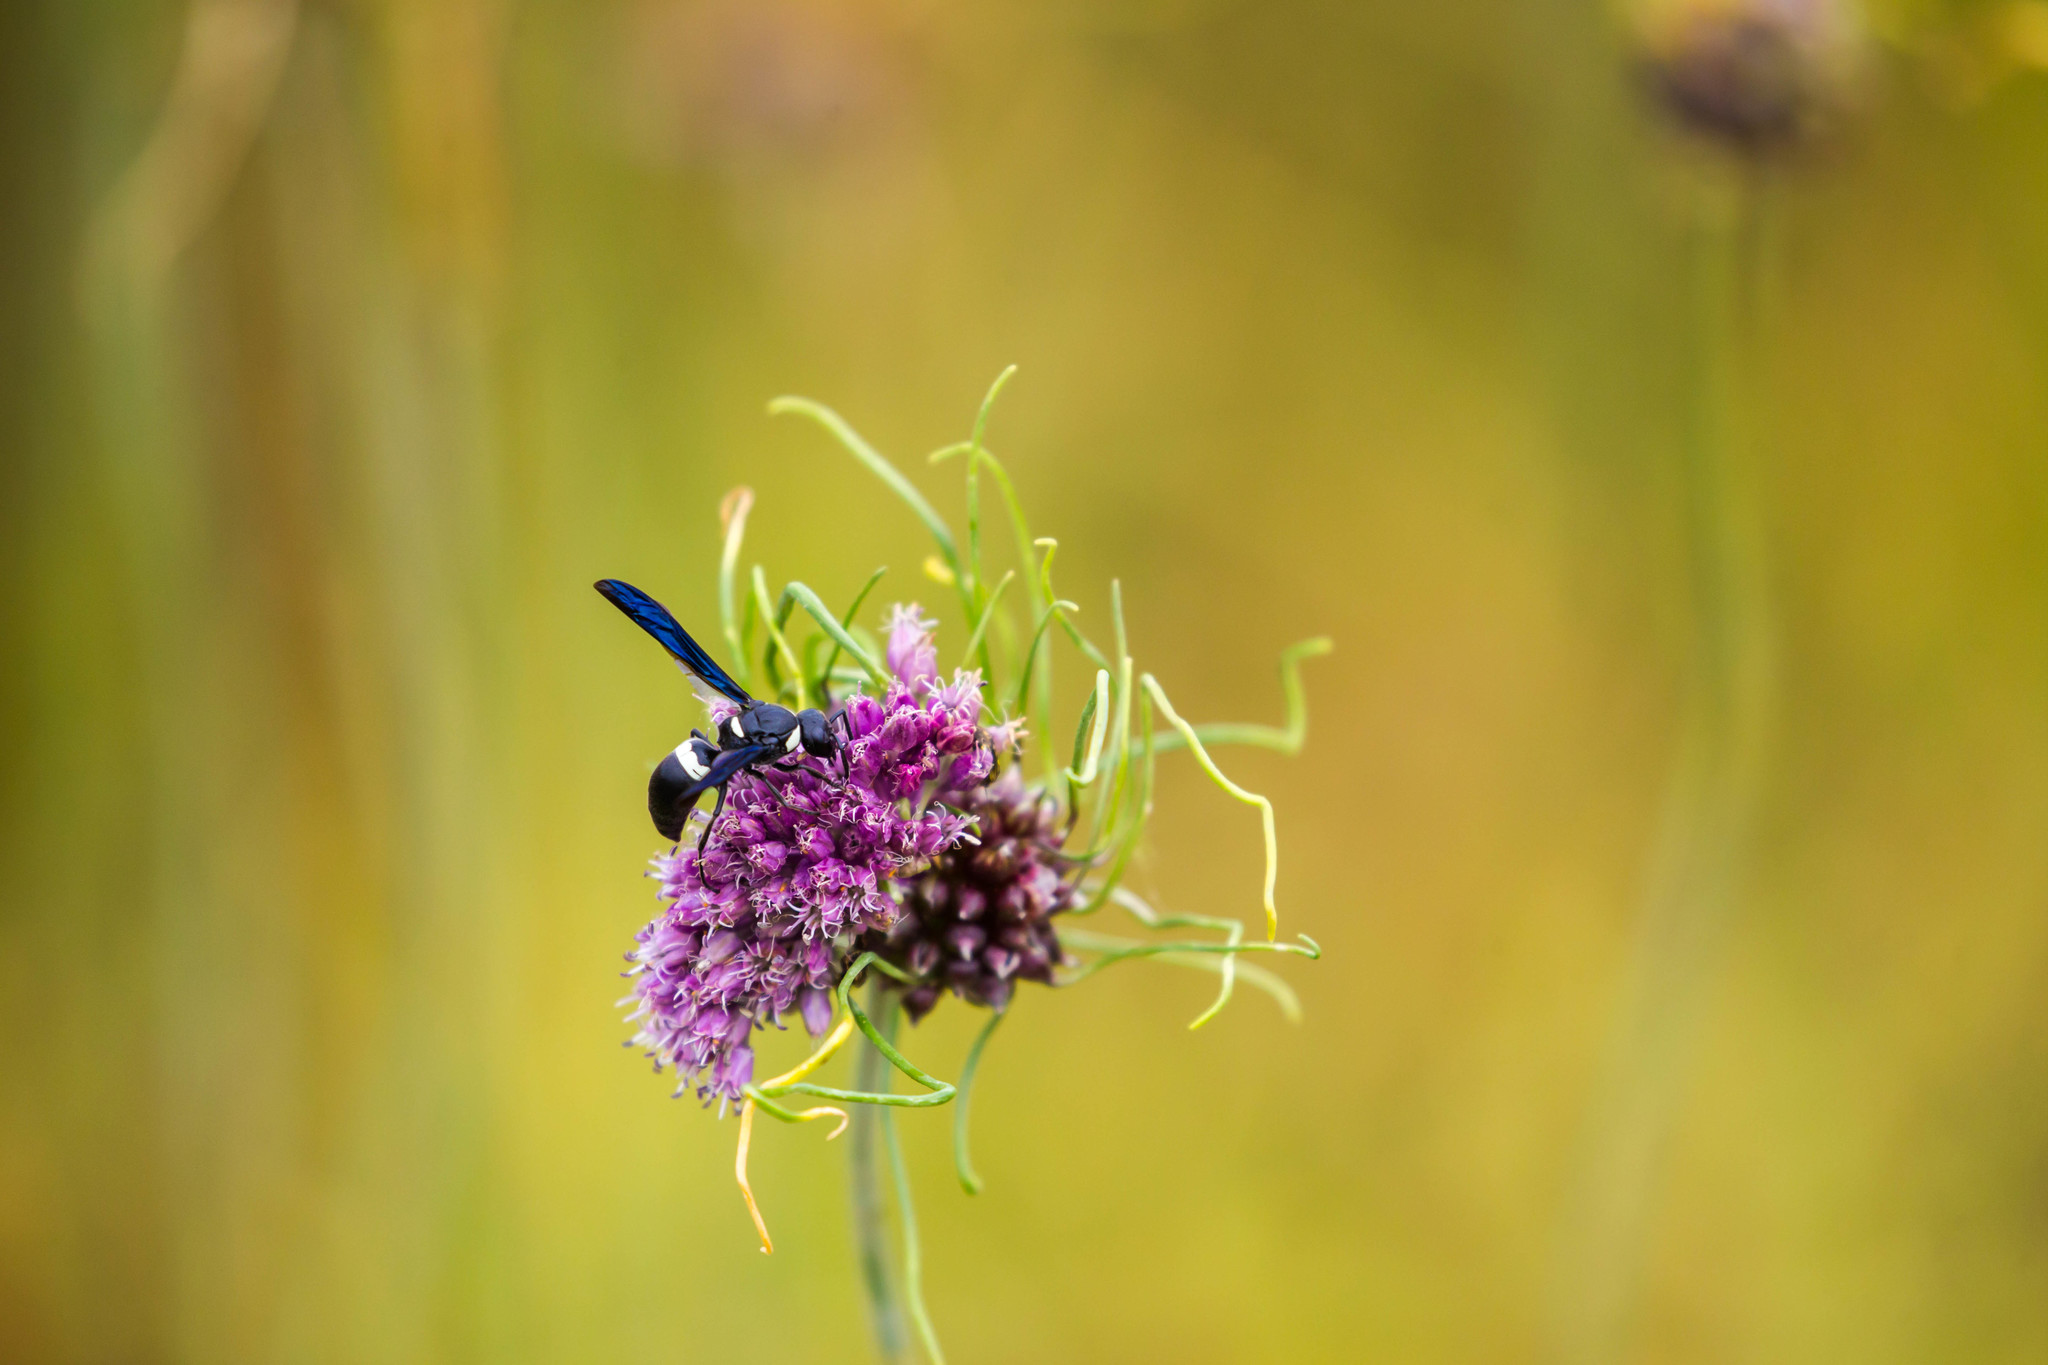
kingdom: Animalia
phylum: Arthropoda
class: Insecta
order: Hymenoptera
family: Eumenidae
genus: Monobia
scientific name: Monobia quadridens
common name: Four-toothed mason wasp
